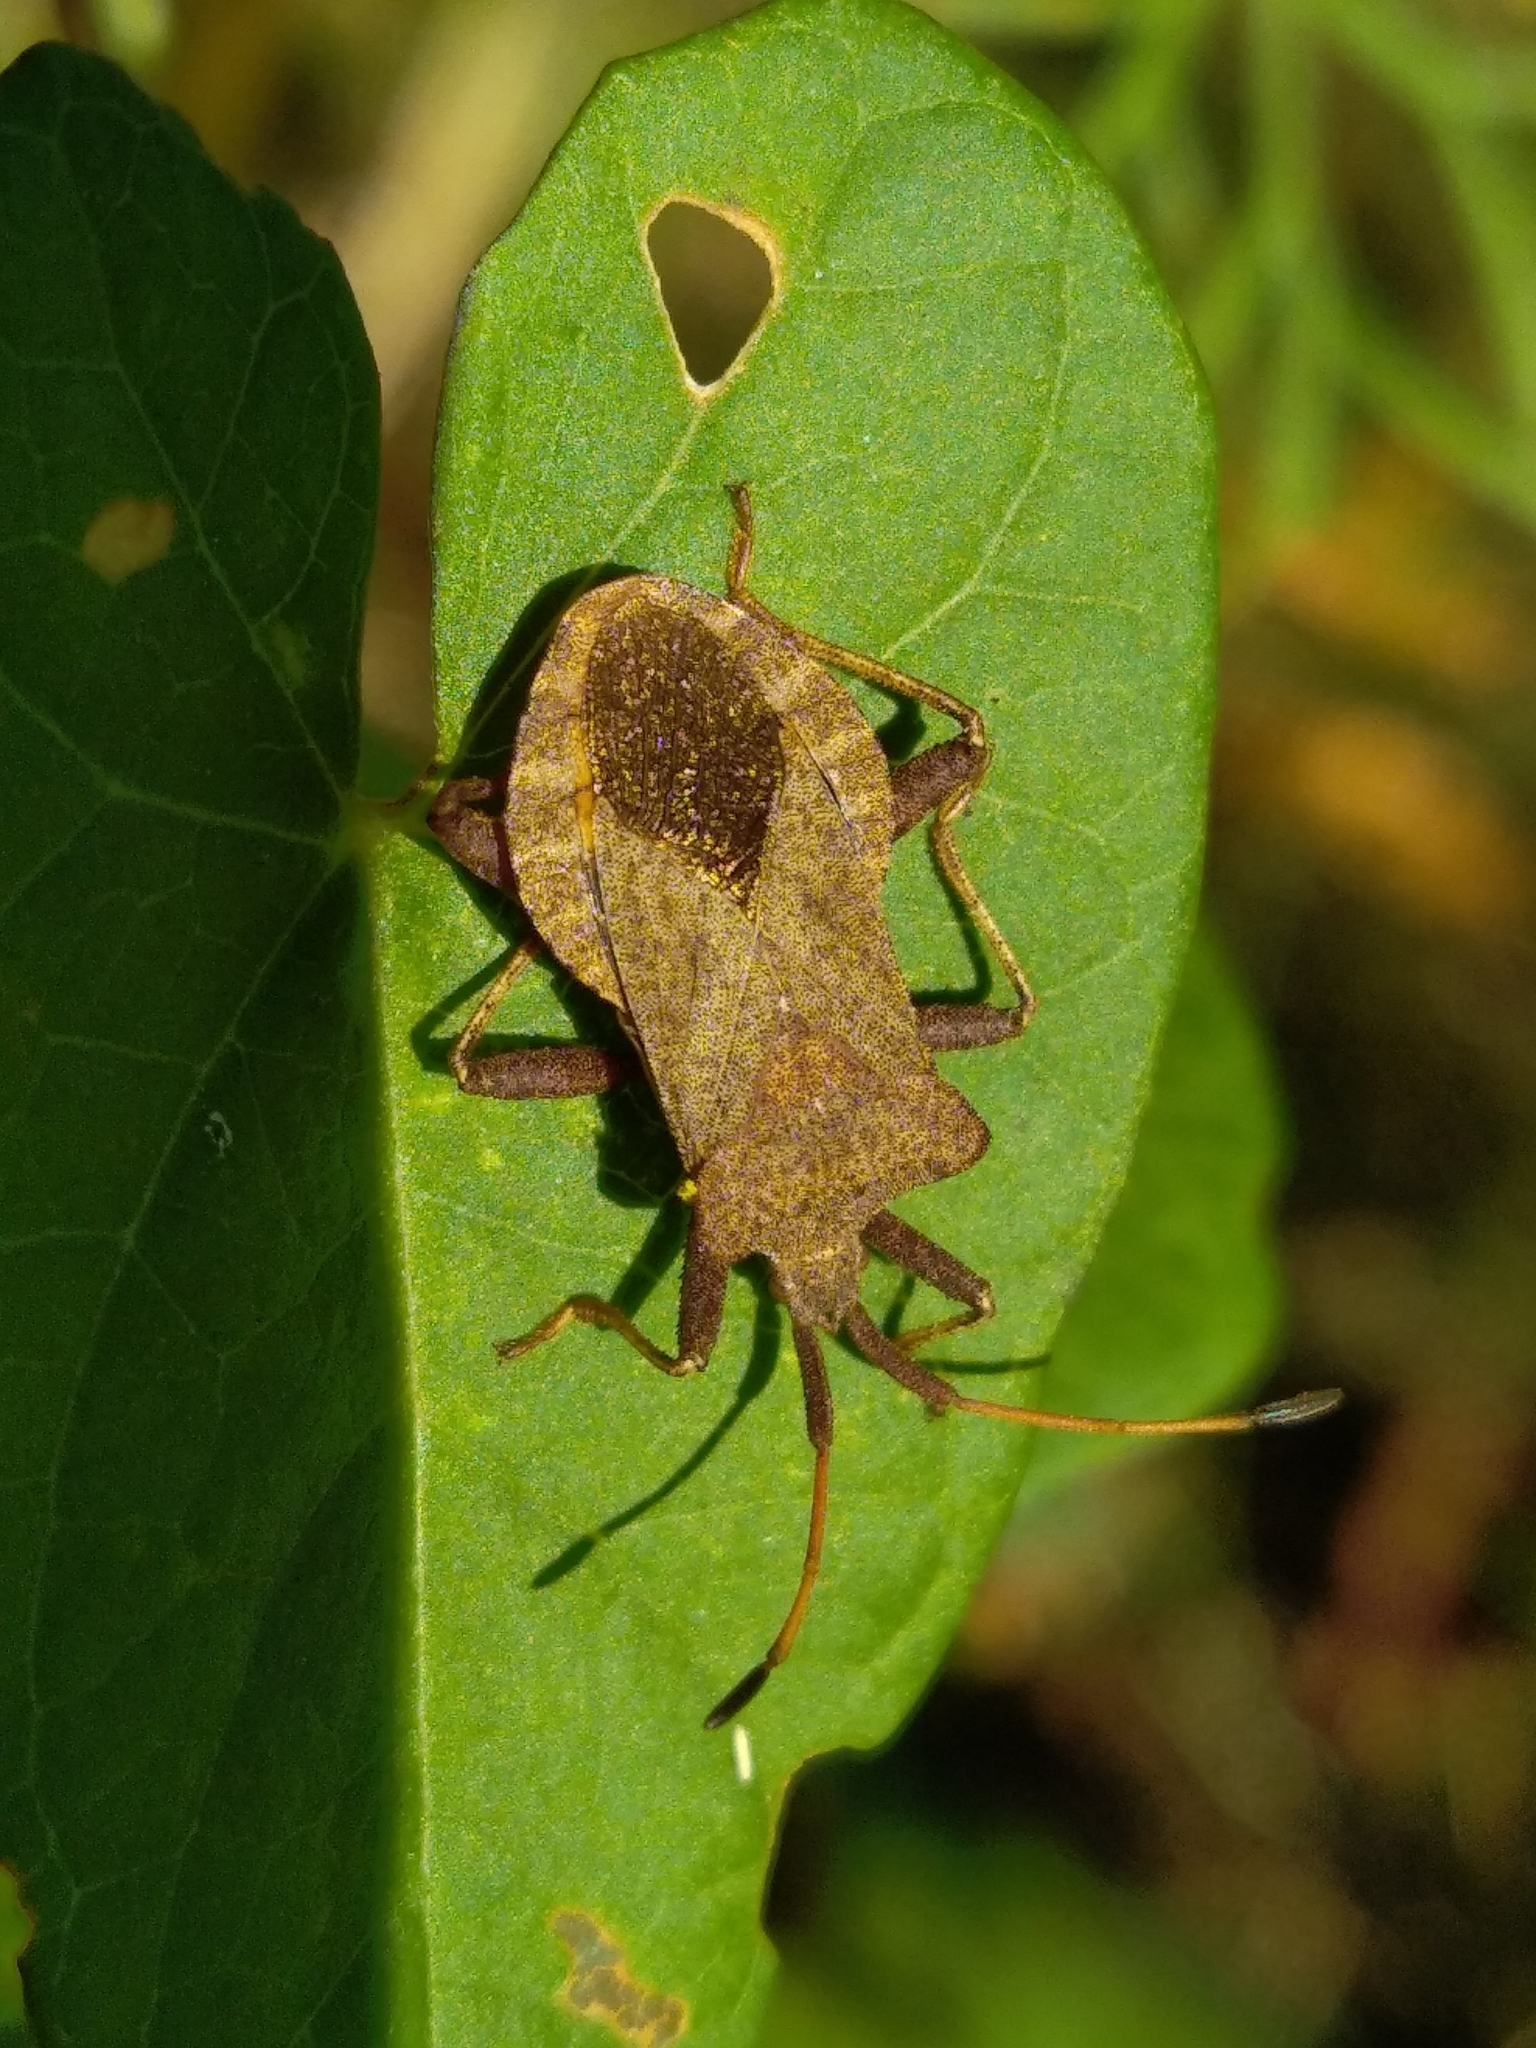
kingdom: Animalia
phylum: Arthropoda
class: Insecta
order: Hemiptera
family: Coreidae
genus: Coreus
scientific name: Coreus marginatus
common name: Dock bug
